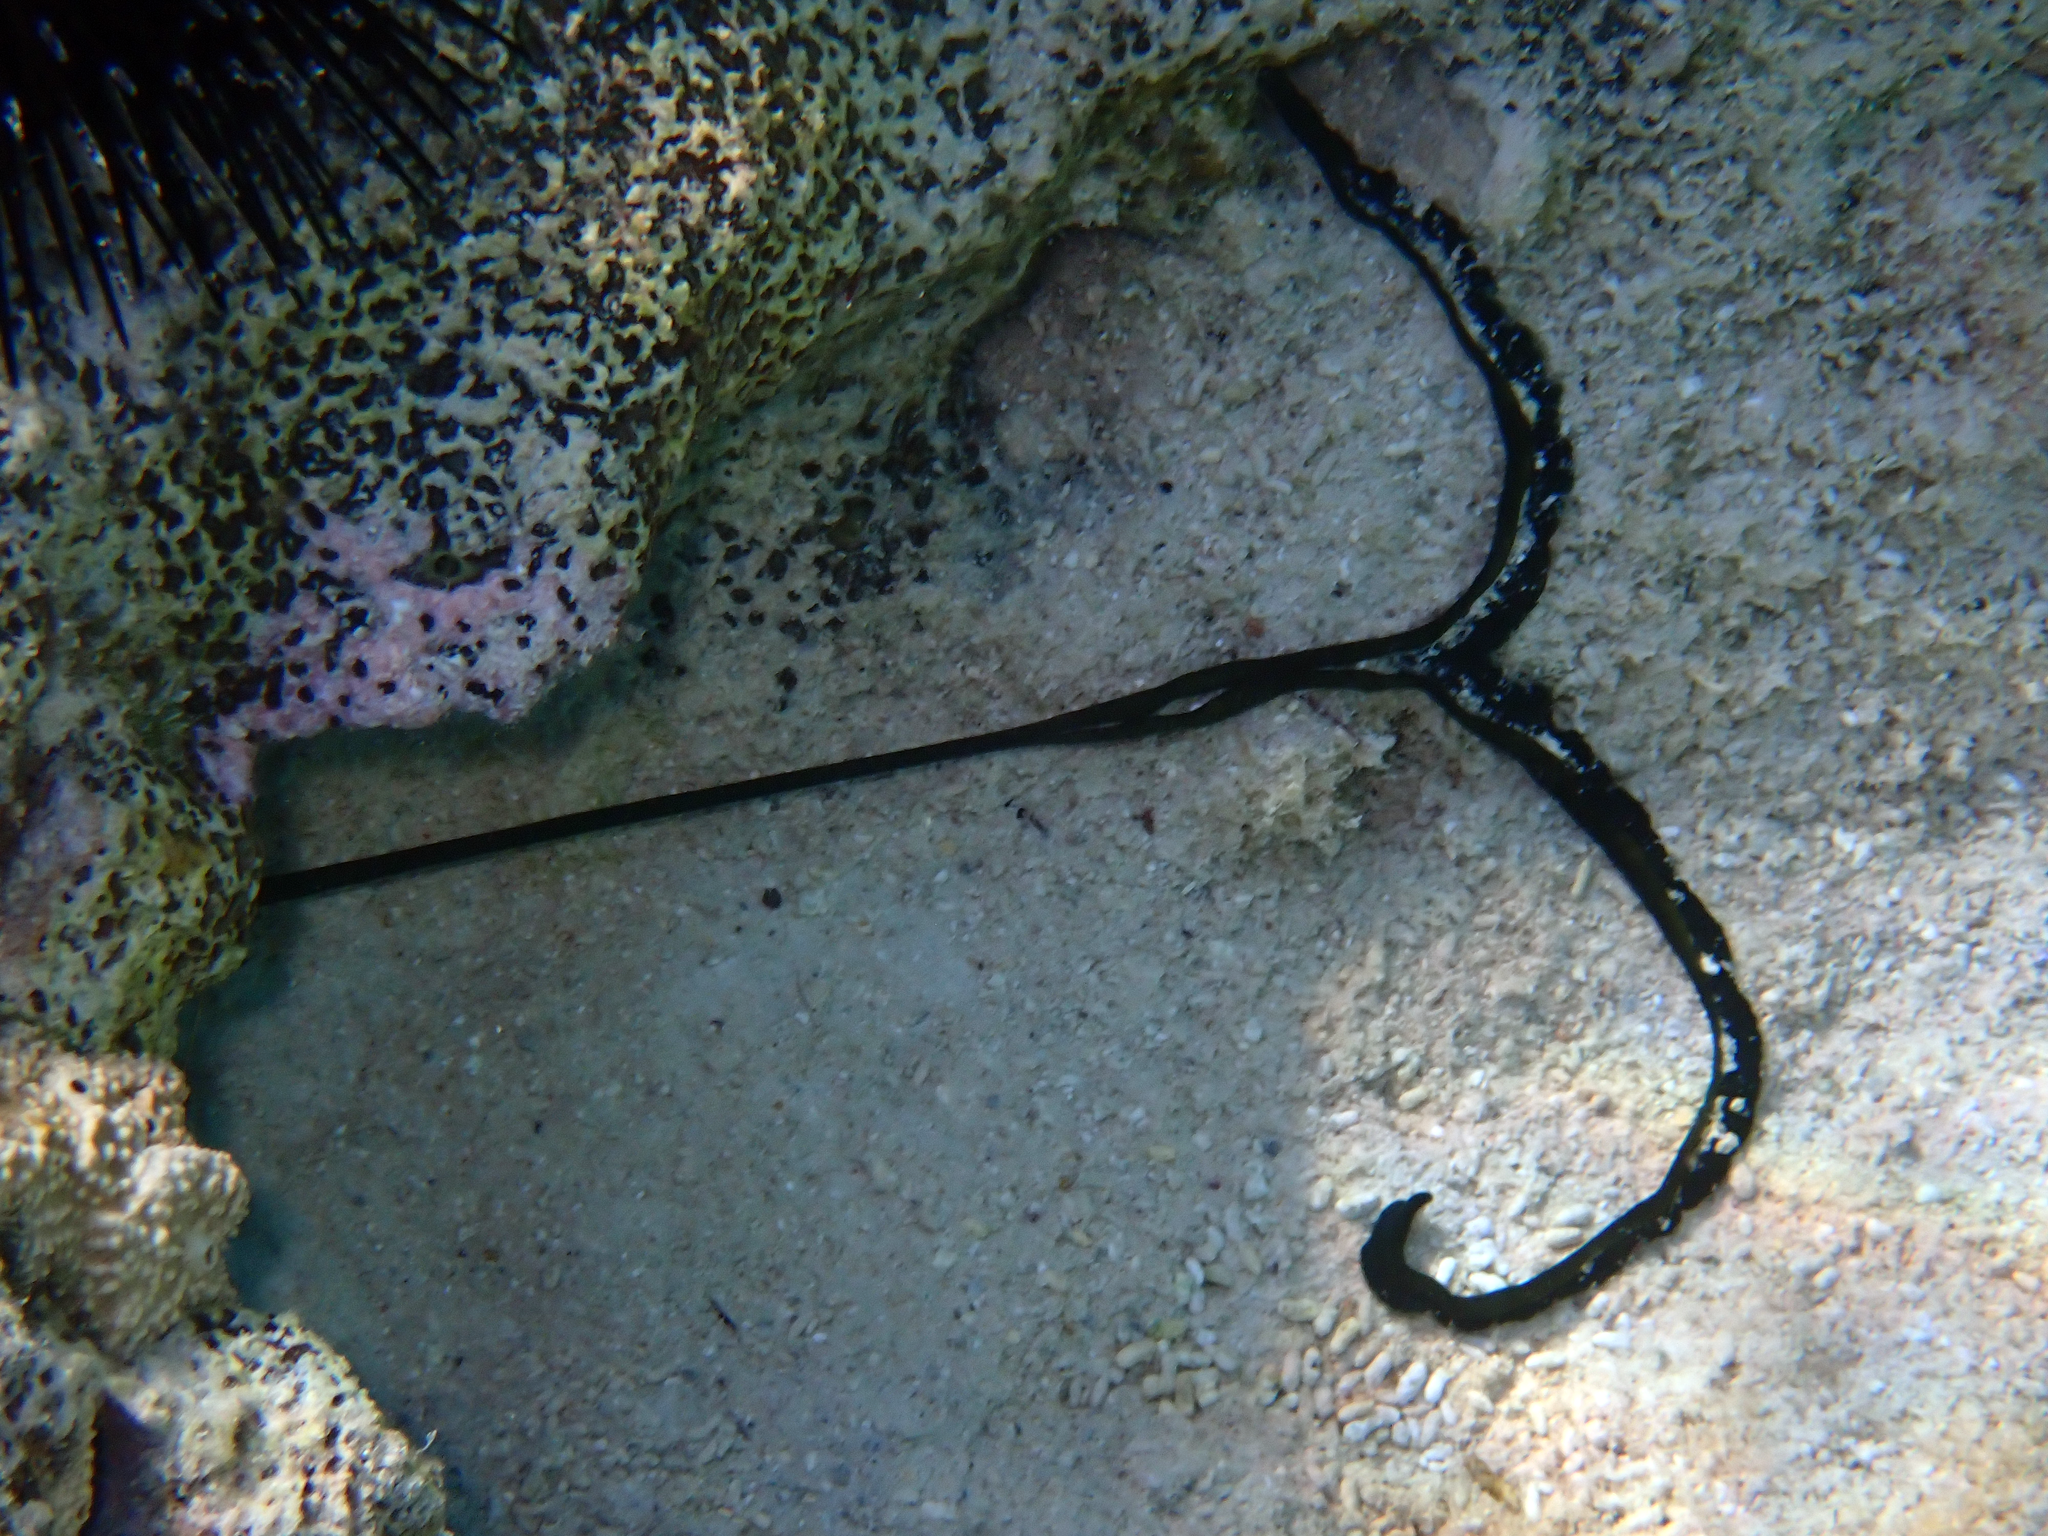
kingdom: Animalia
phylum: Annelida
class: Polychaeta
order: Echiuroidea
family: Bonelliidae
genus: Bonellia
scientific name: Bonellia viridis
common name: Green spoon worm
